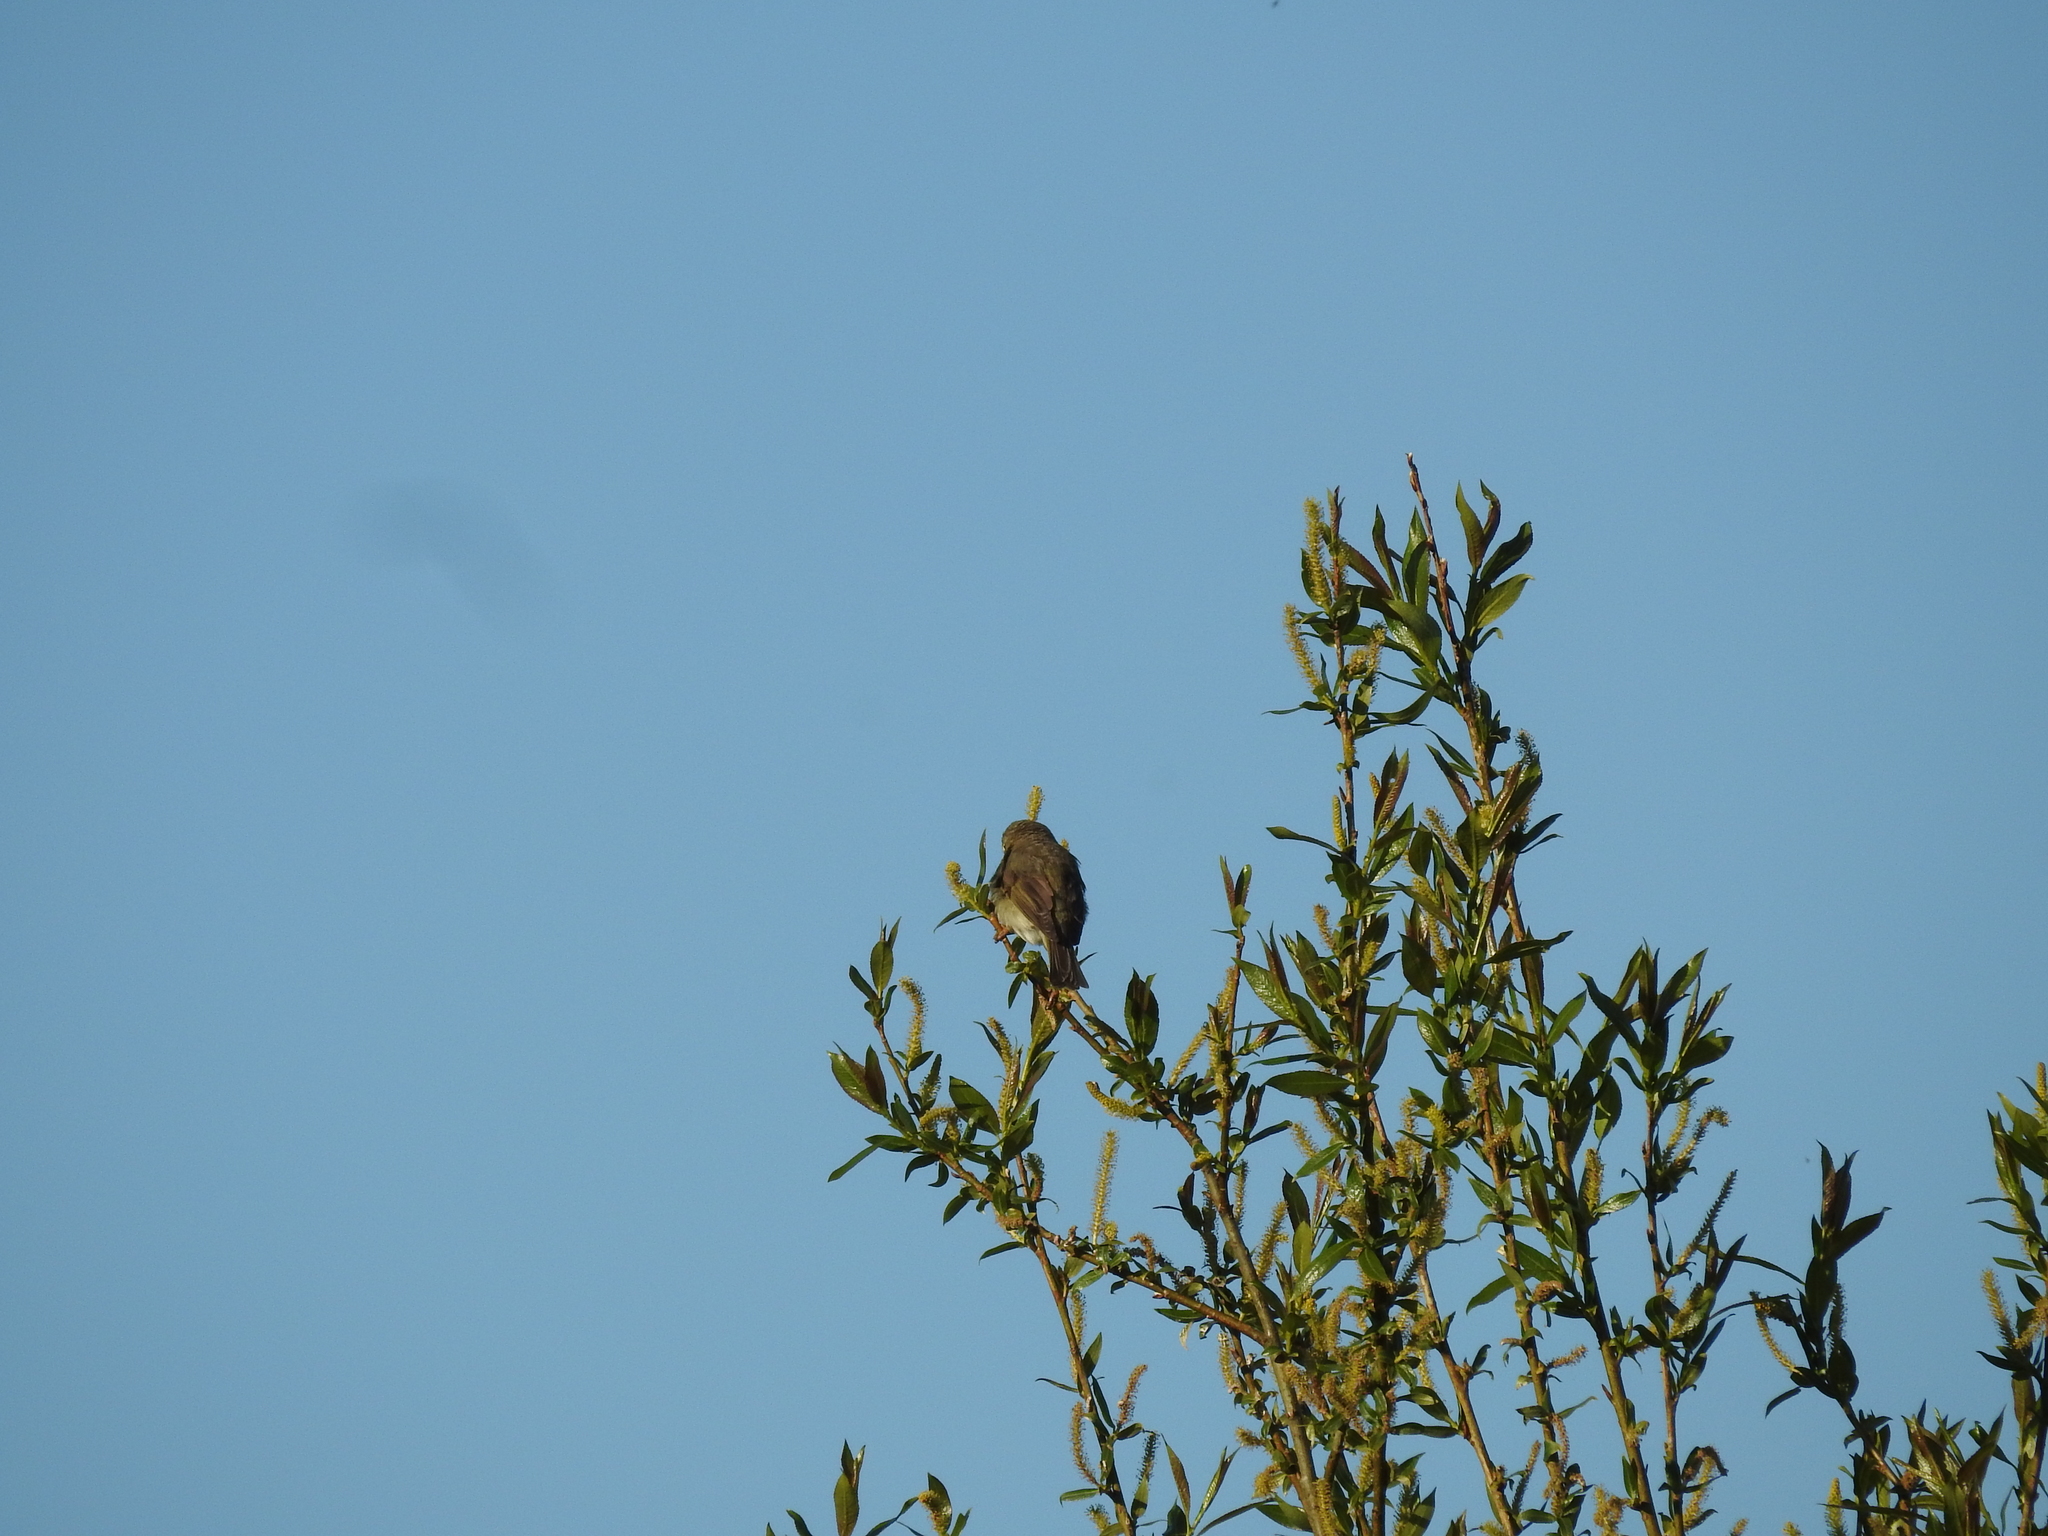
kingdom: Animalia
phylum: Chordata
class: Aves
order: Passeriformes
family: Phylloscopidae
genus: Phylloscopus
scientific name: Phylloscopus trochilus
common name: Willow warbler
